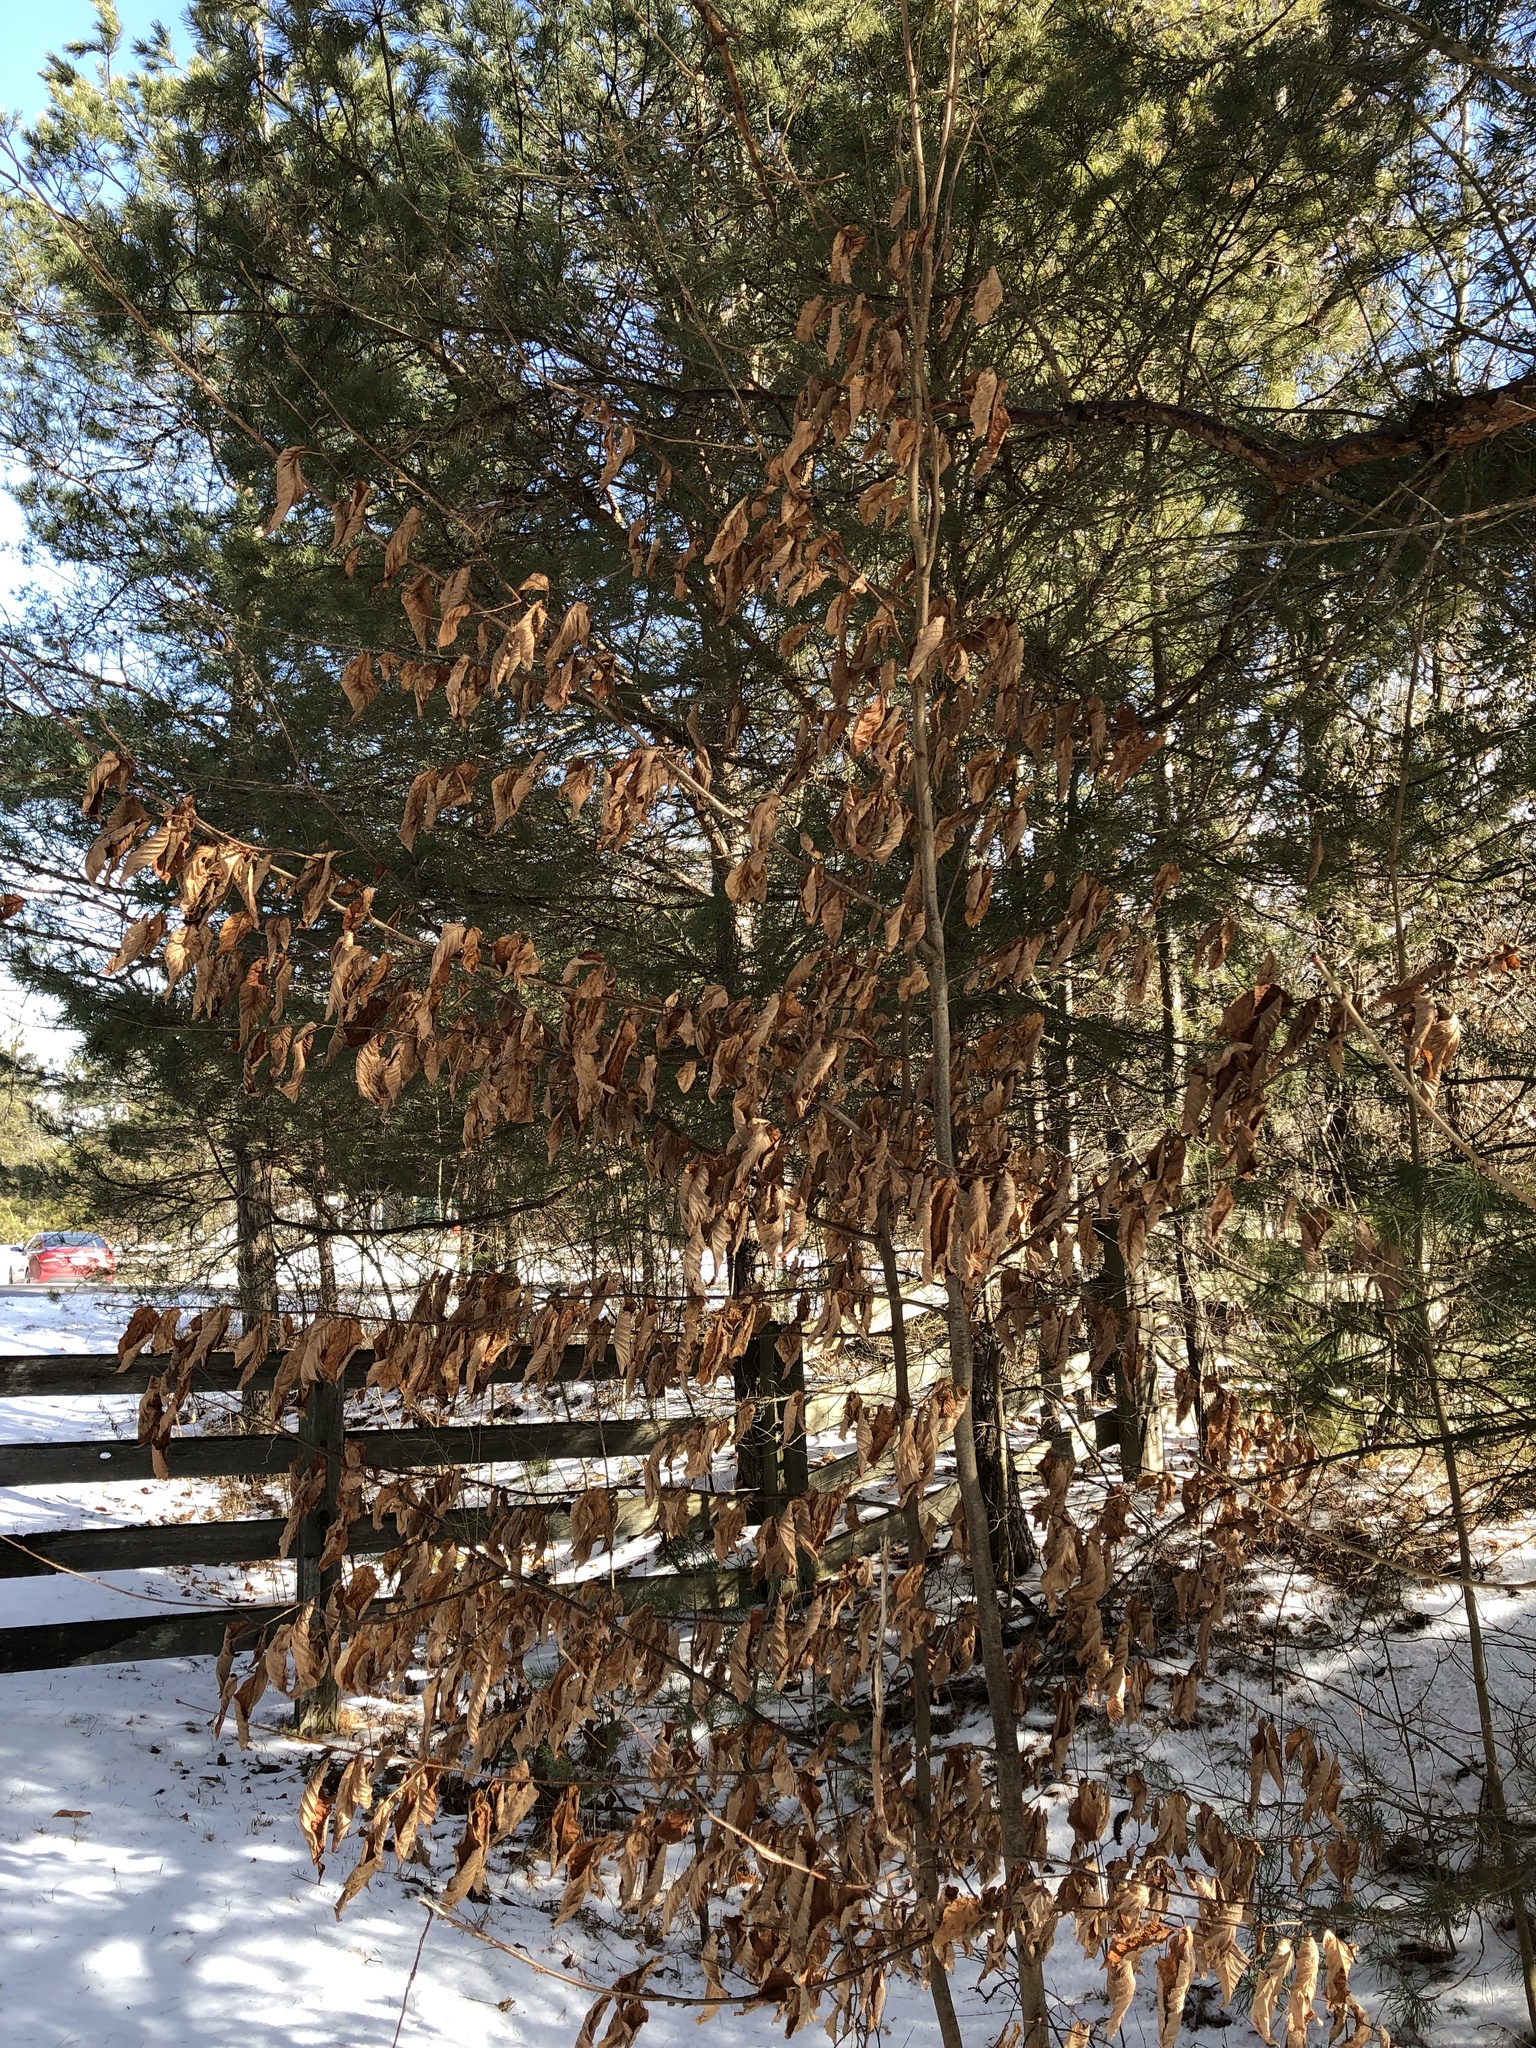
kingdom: Plantae
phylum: Tracheophyta
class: Magnoliopsida
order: Fagales
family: Fagaceae
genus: Fagus
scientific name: Fagus grandifolia
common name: American beech
